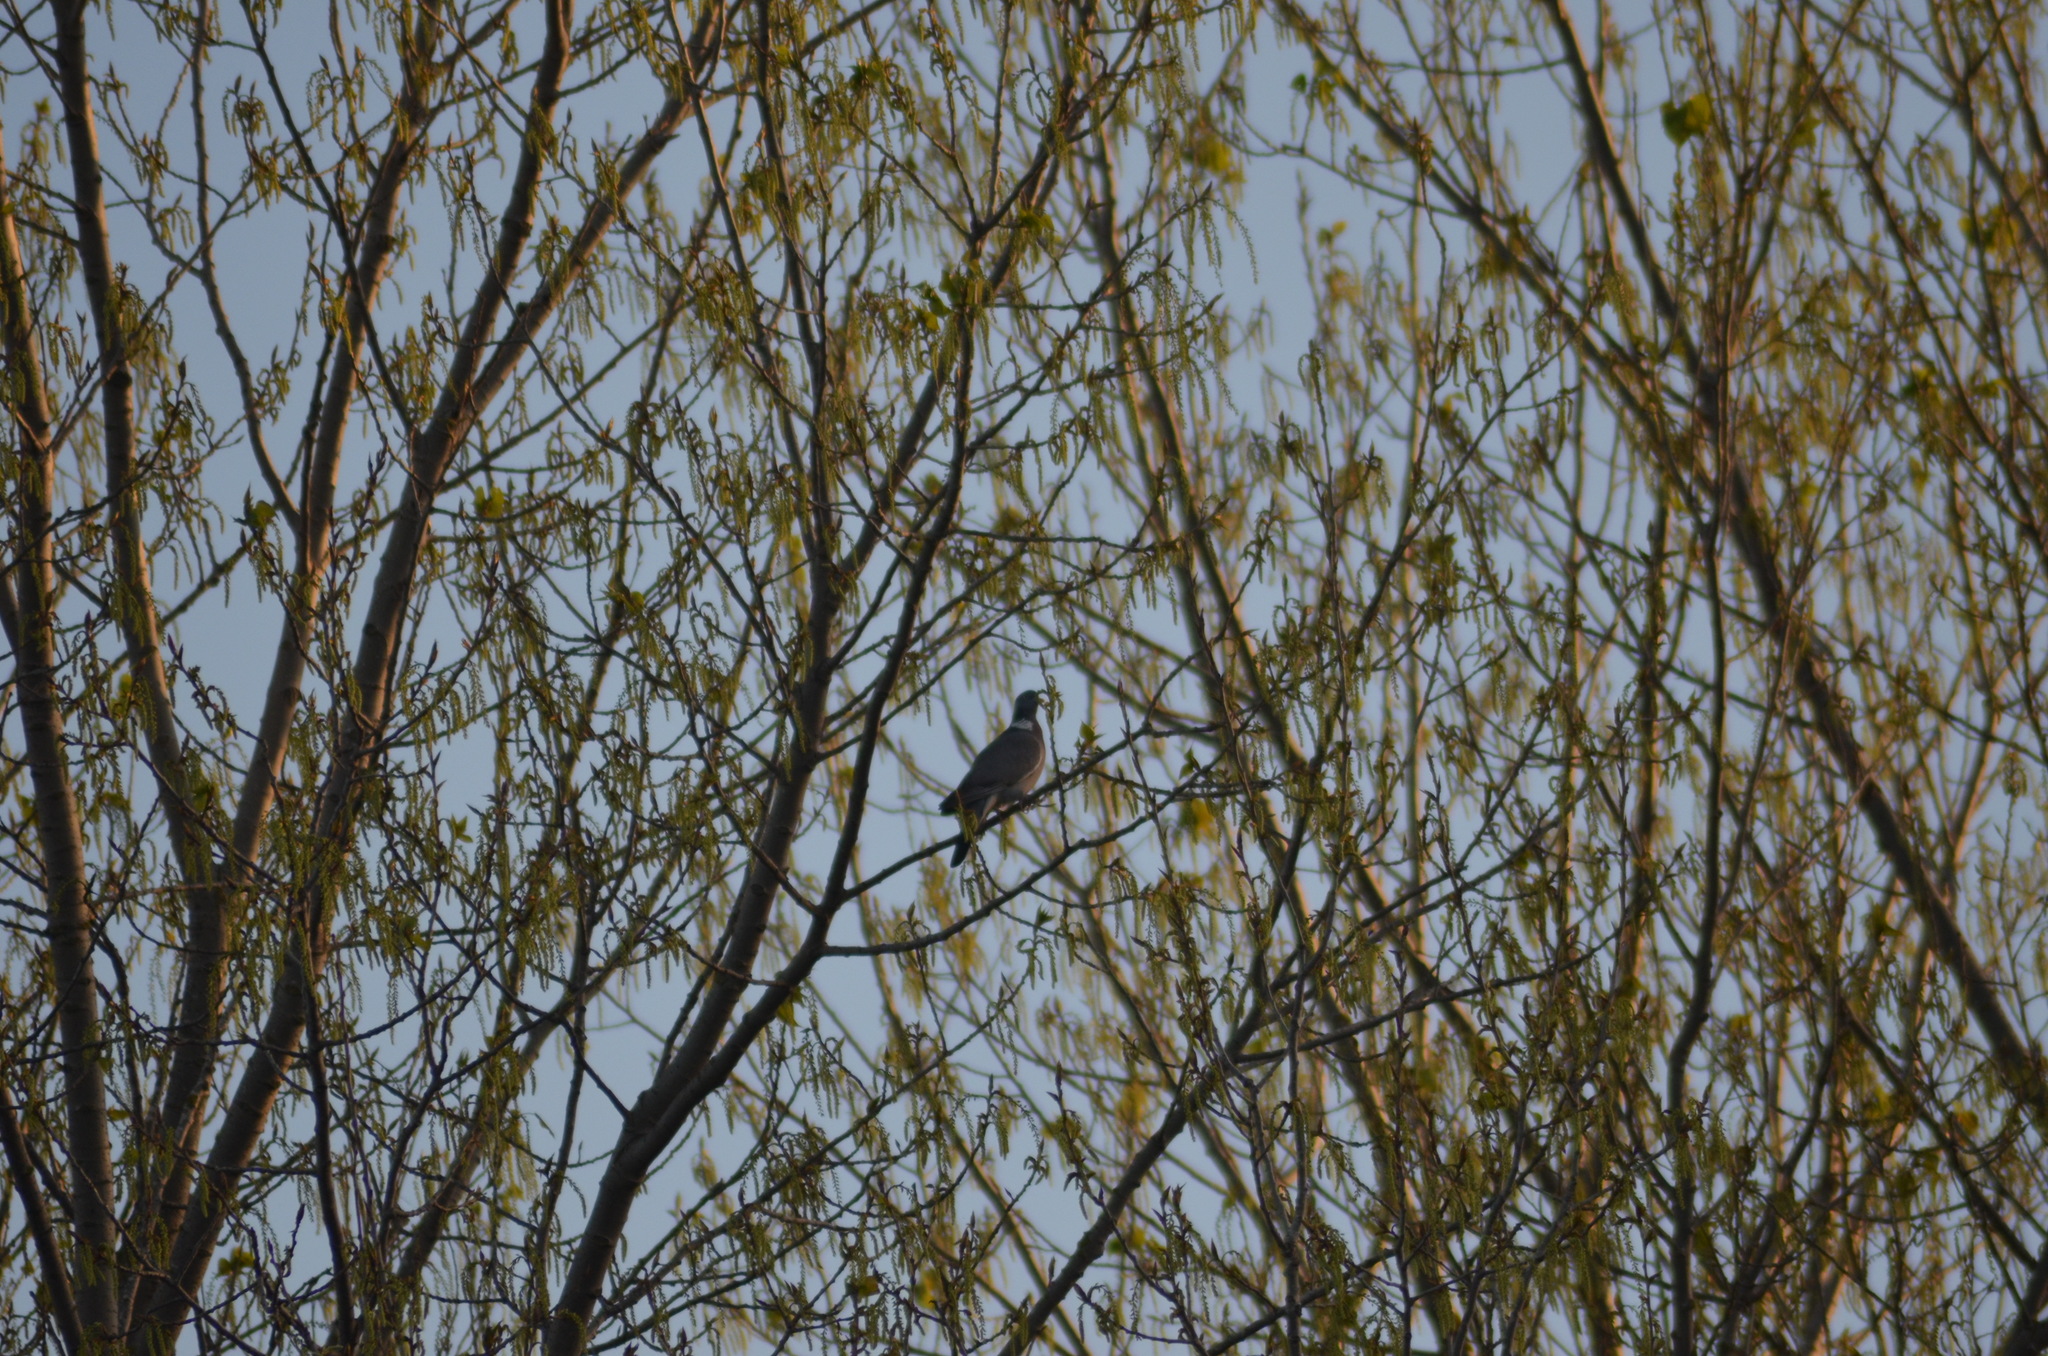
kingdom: Animalia
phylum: Chordata
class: Aves
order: Columbiformes
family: Columbidae
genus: Columba
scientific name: Columba palumbus
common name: Common wood pigeon
